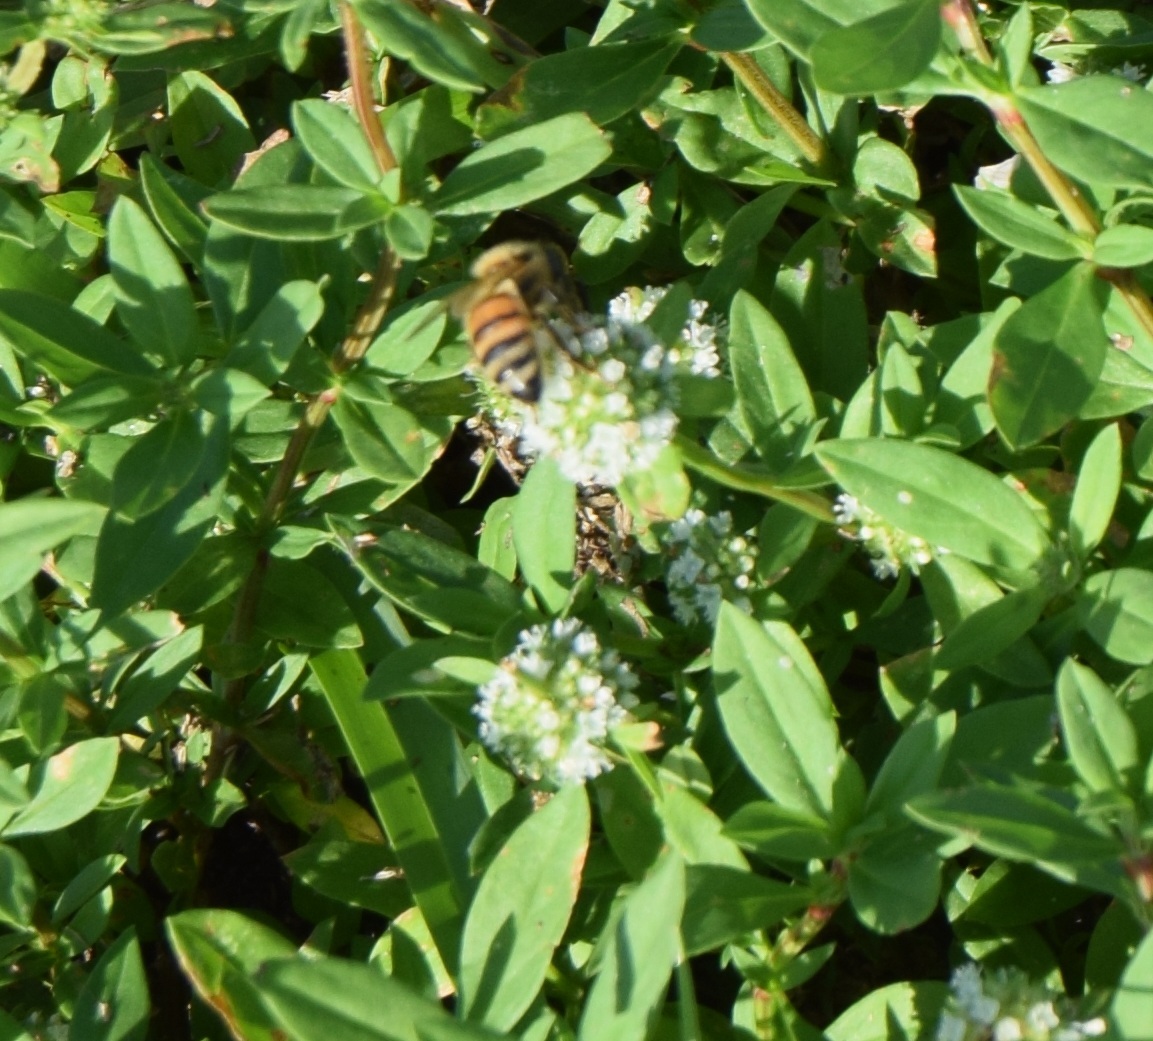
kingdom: Animalia
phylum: Arthropoda
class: Insecta
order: Hymenoptera
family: Apidae
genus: Apis
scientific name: Apis mellifera
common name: Honey bee
